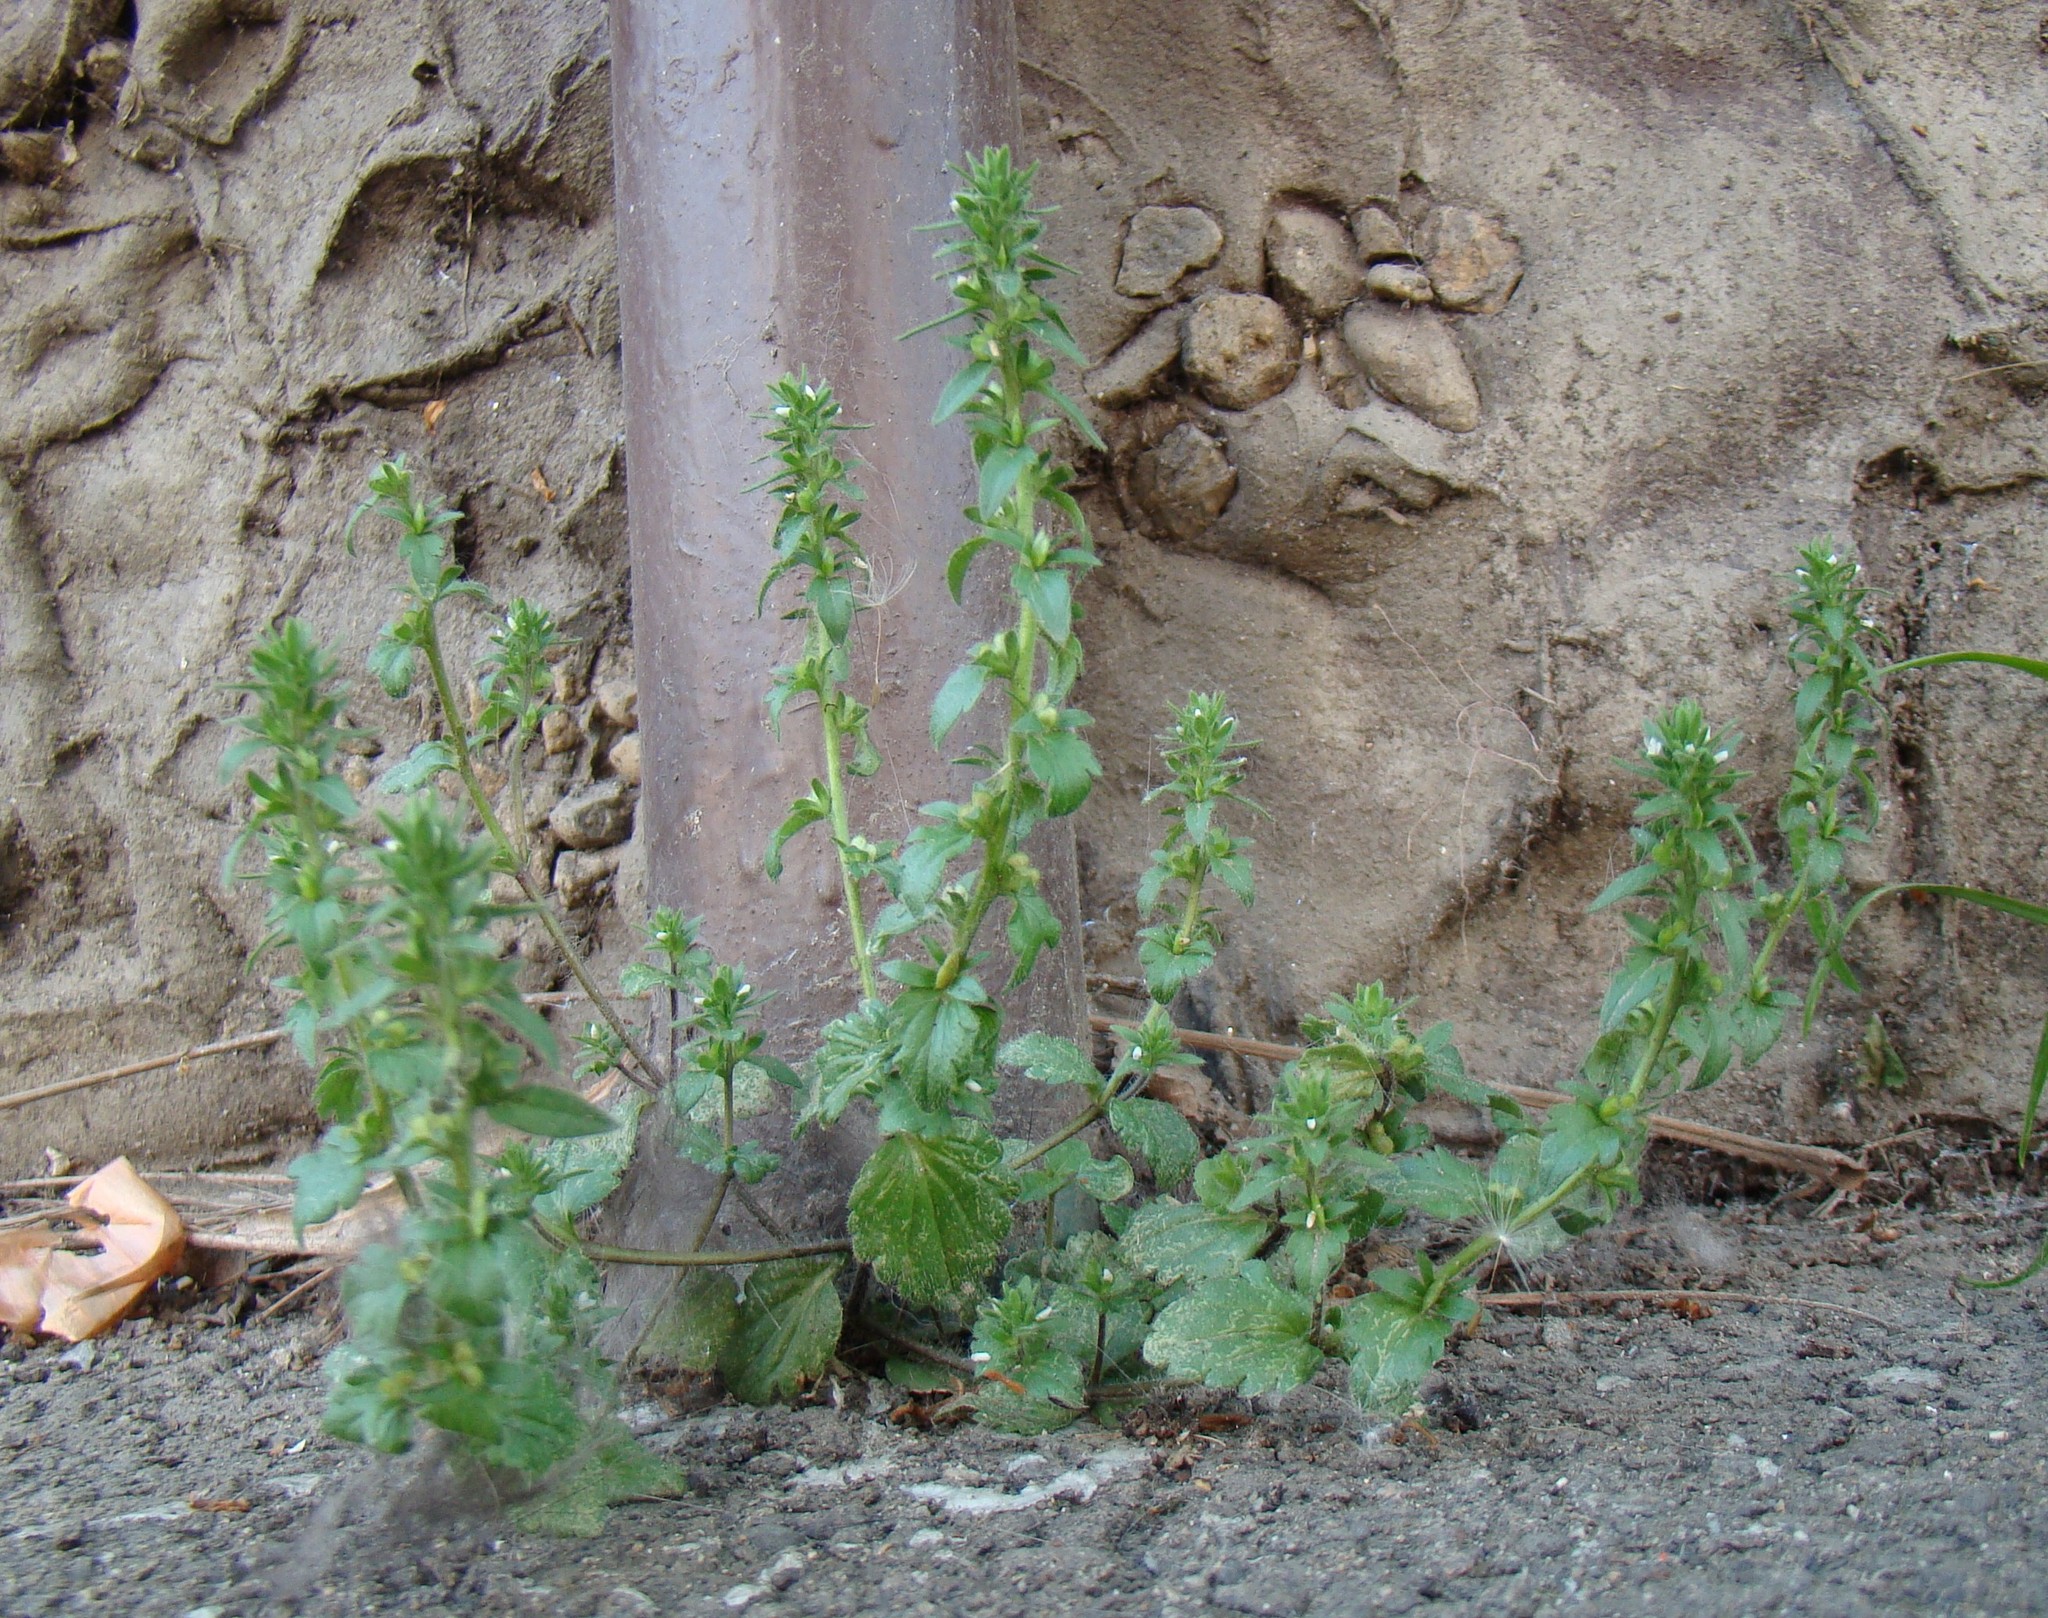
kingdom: Plantae
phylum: Tracheophyta
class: Magnoliopsida
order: Lamiales
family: Plantaginaceae
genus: Veronica
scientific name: Veronica arvensis
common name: Corn speedwell
